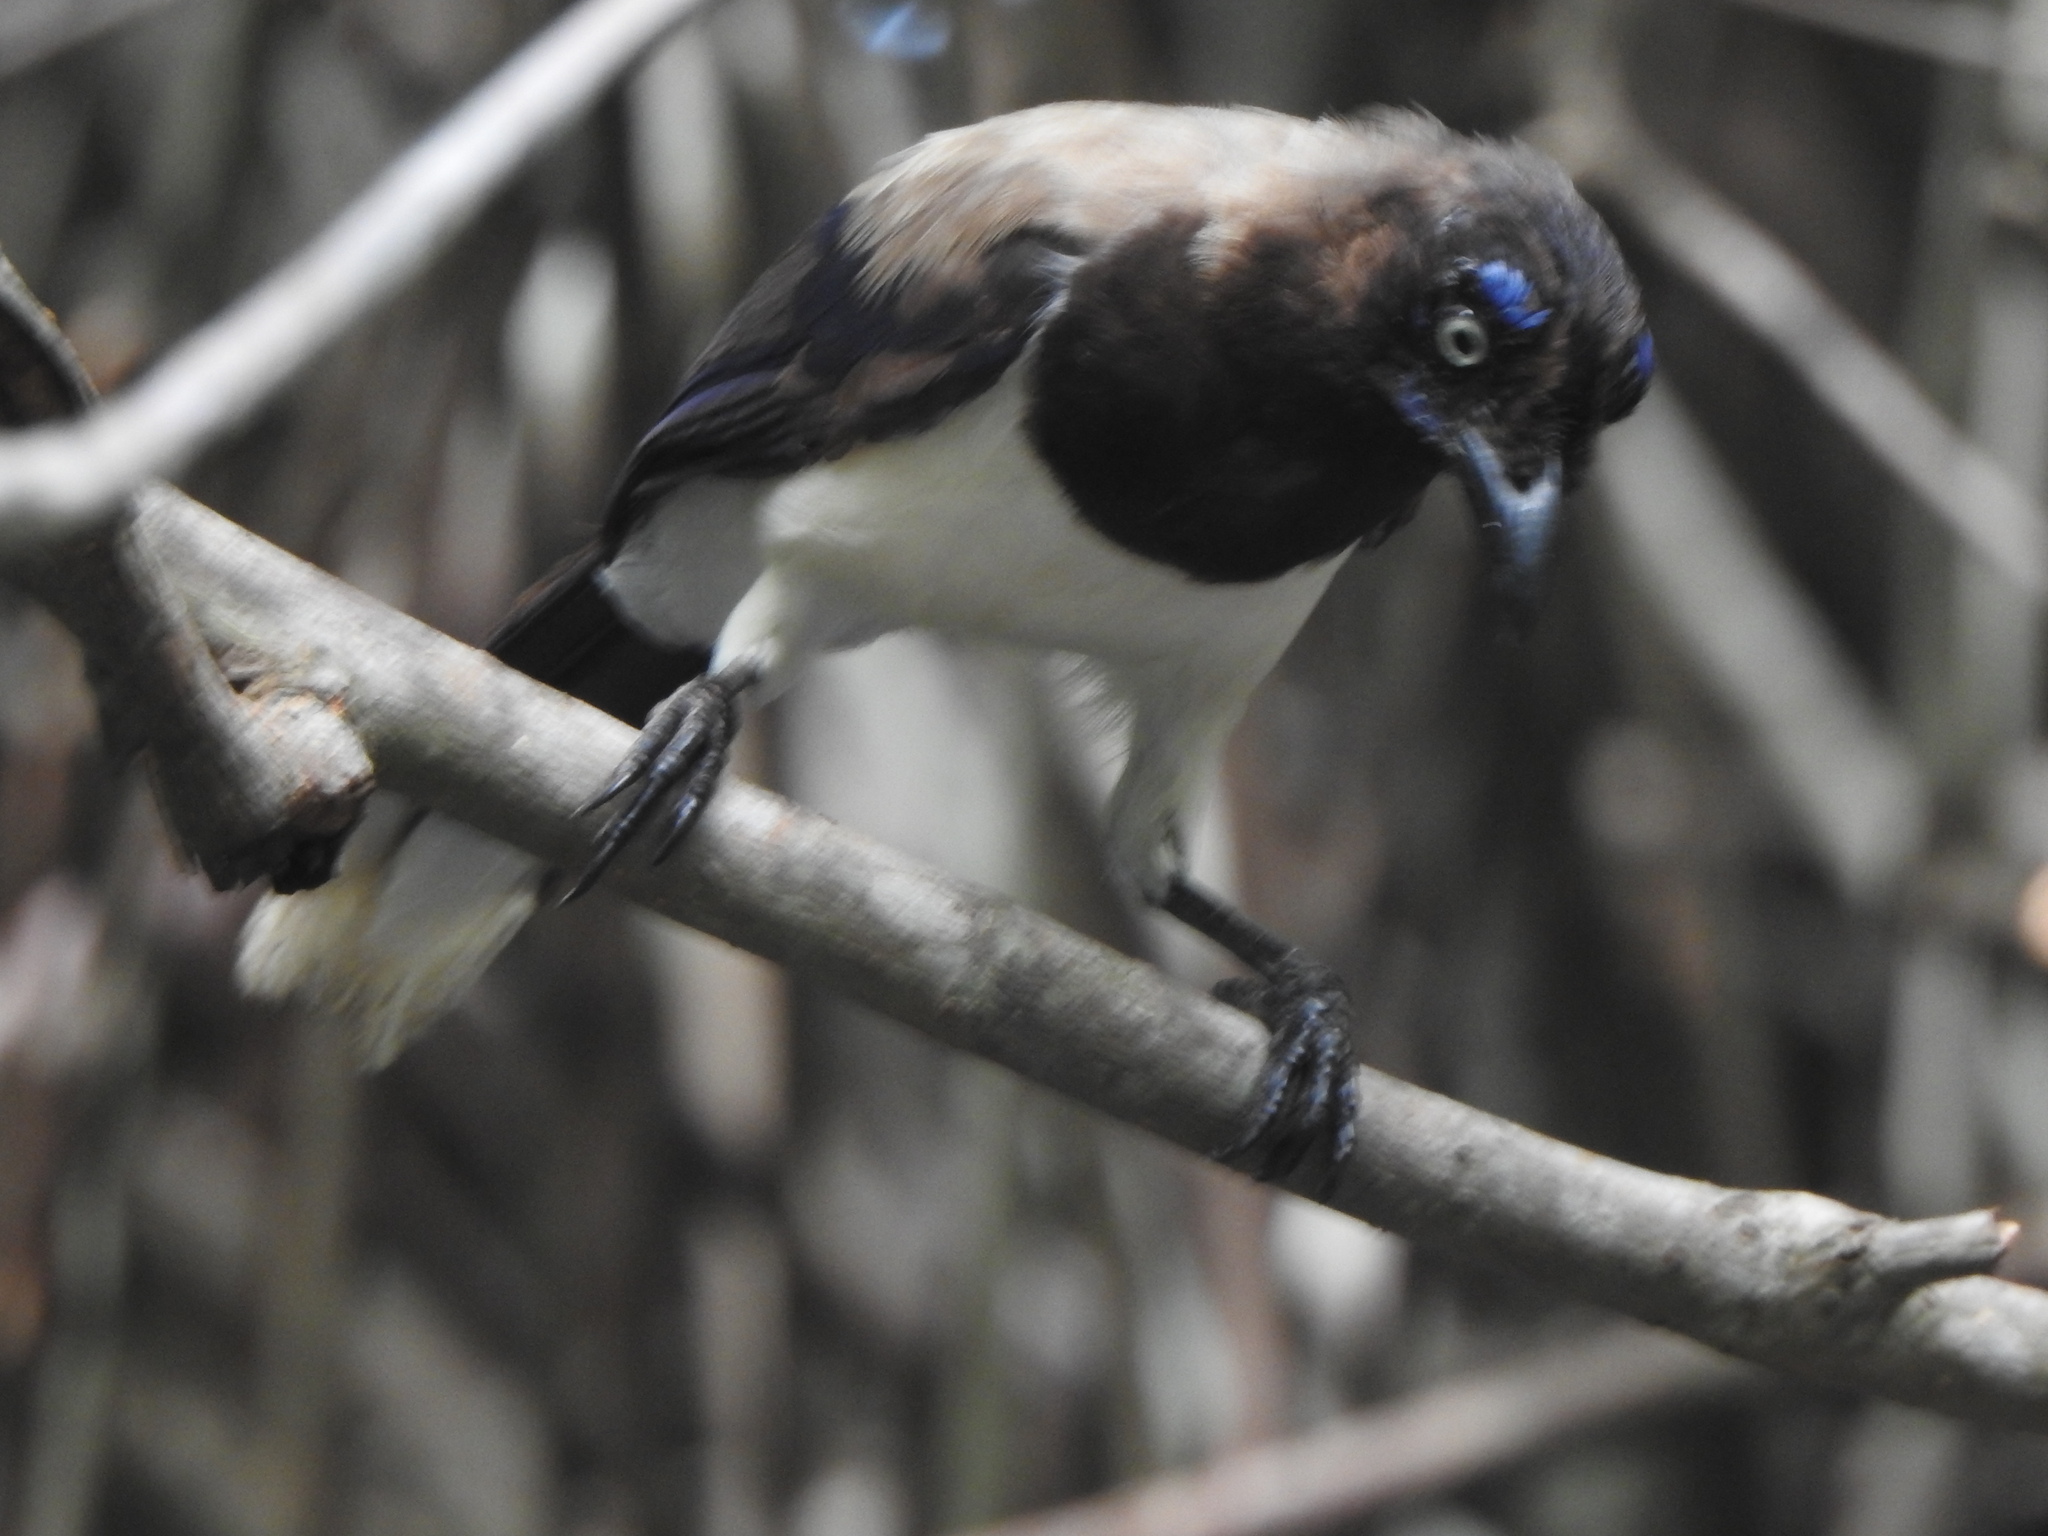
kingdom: Animalia
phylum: Chordata
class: Aves
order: Passeriformes
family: Corvidae
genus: Cyanocorax
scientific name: Cyanocorax affinis
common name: Black-chested jay
